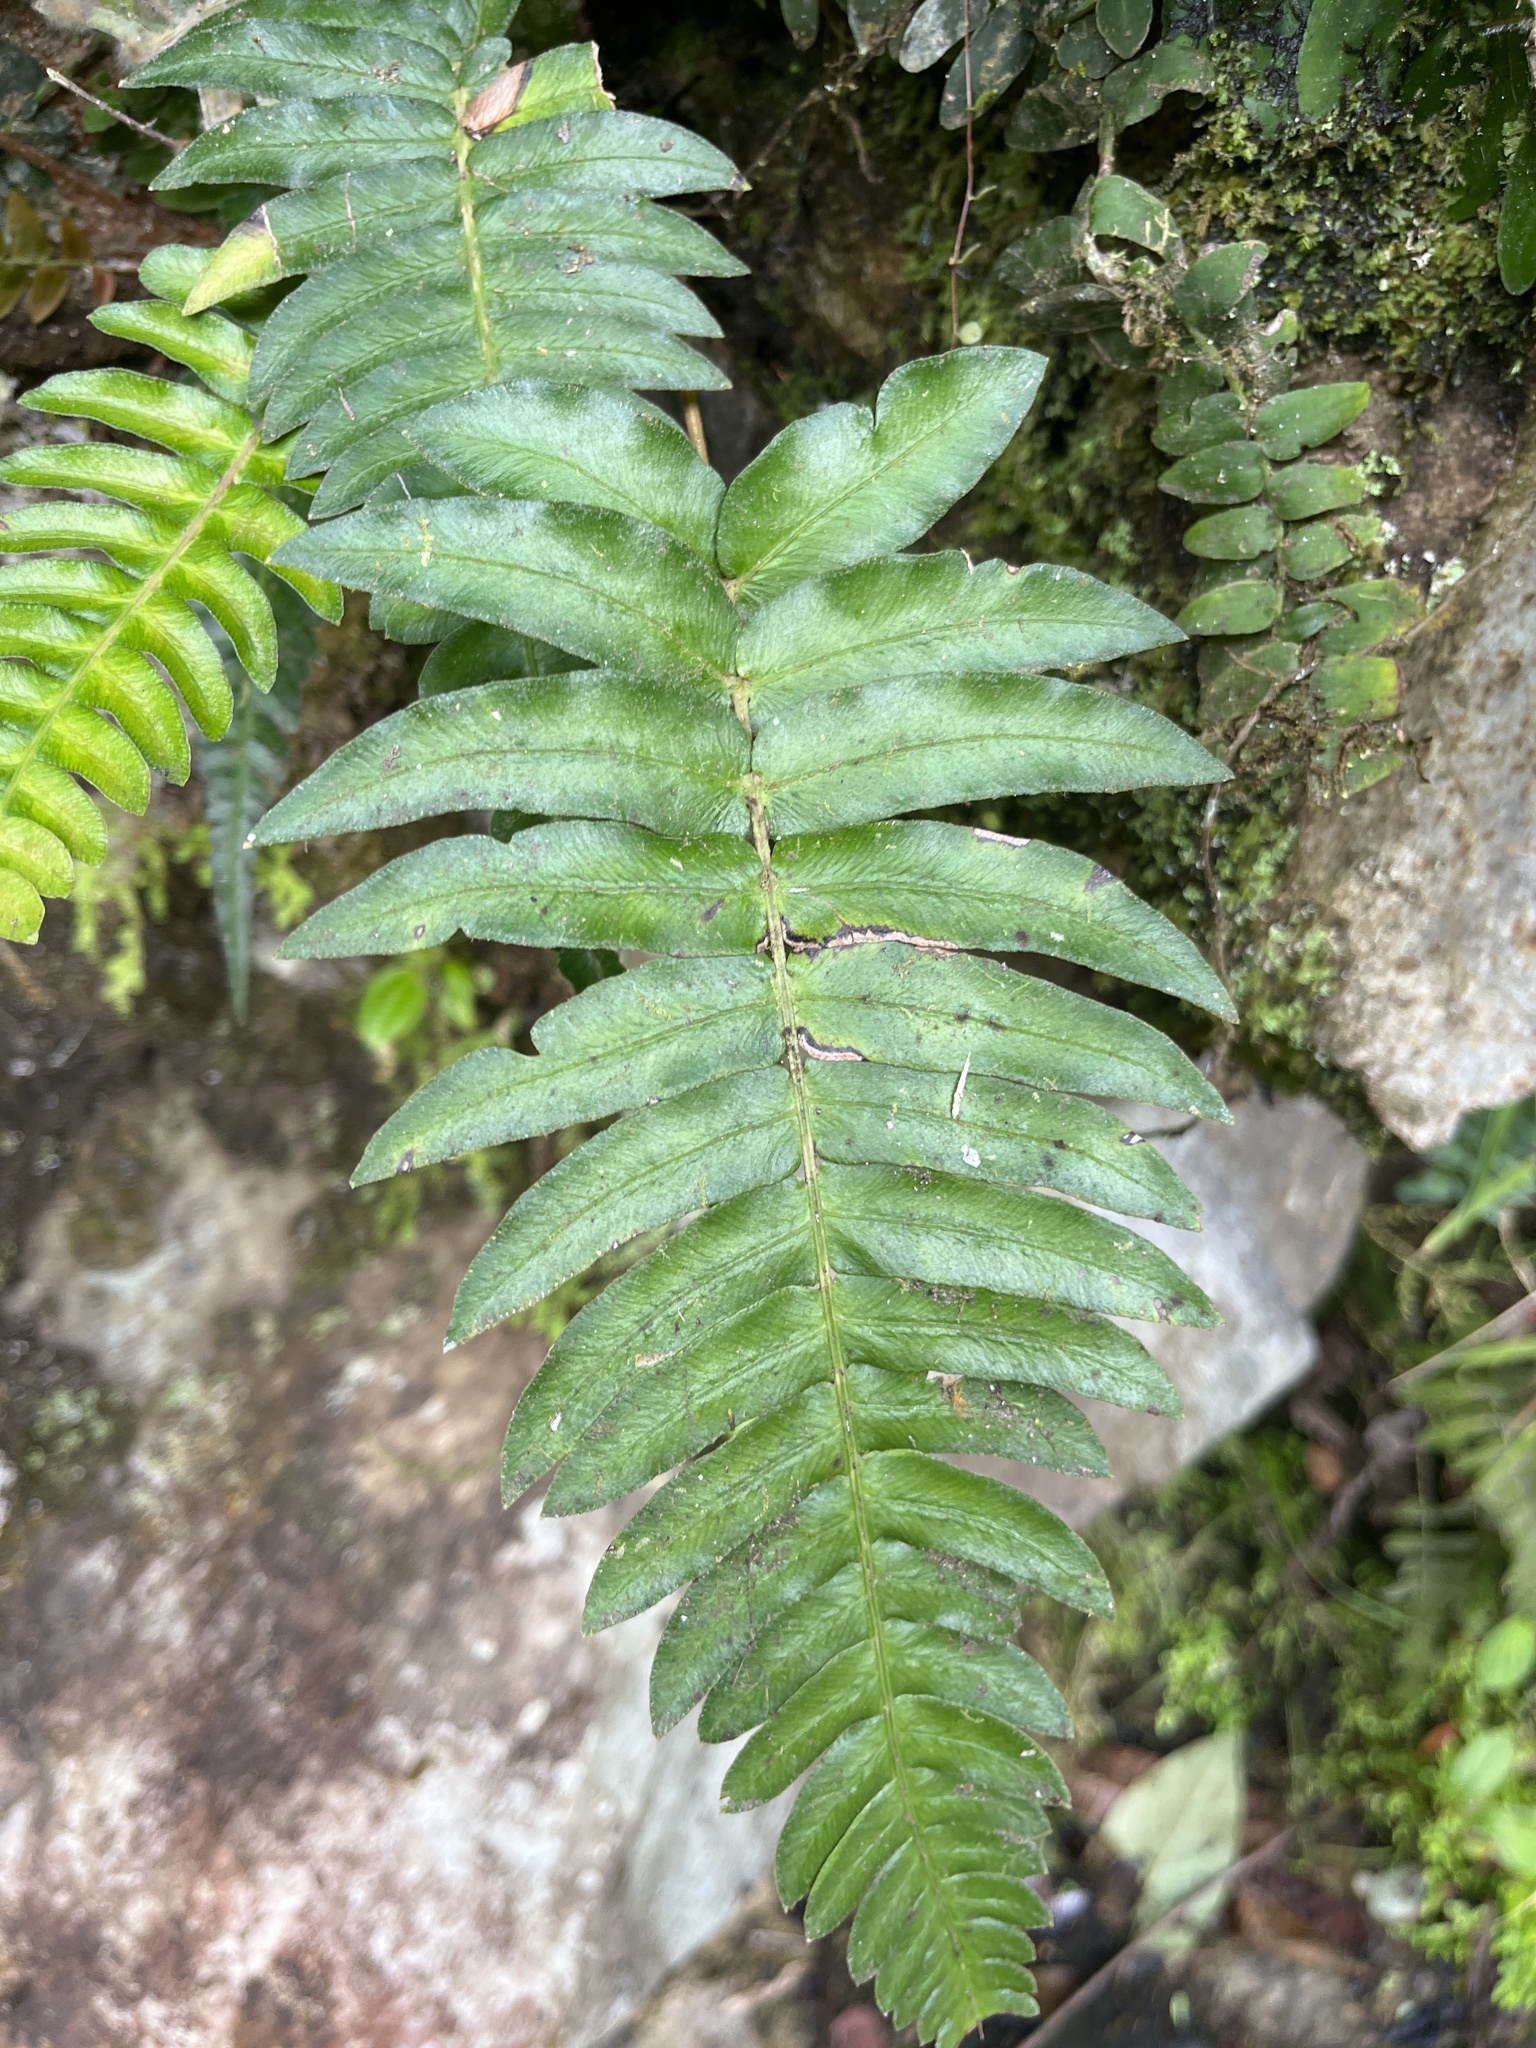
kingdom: Plantae
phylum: Tracheophyta
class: Polypodiopsida
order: Polypodiales
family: Blechnaceae
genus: Blechnum
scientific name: Blechnum occidentale
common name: Hammock fern
